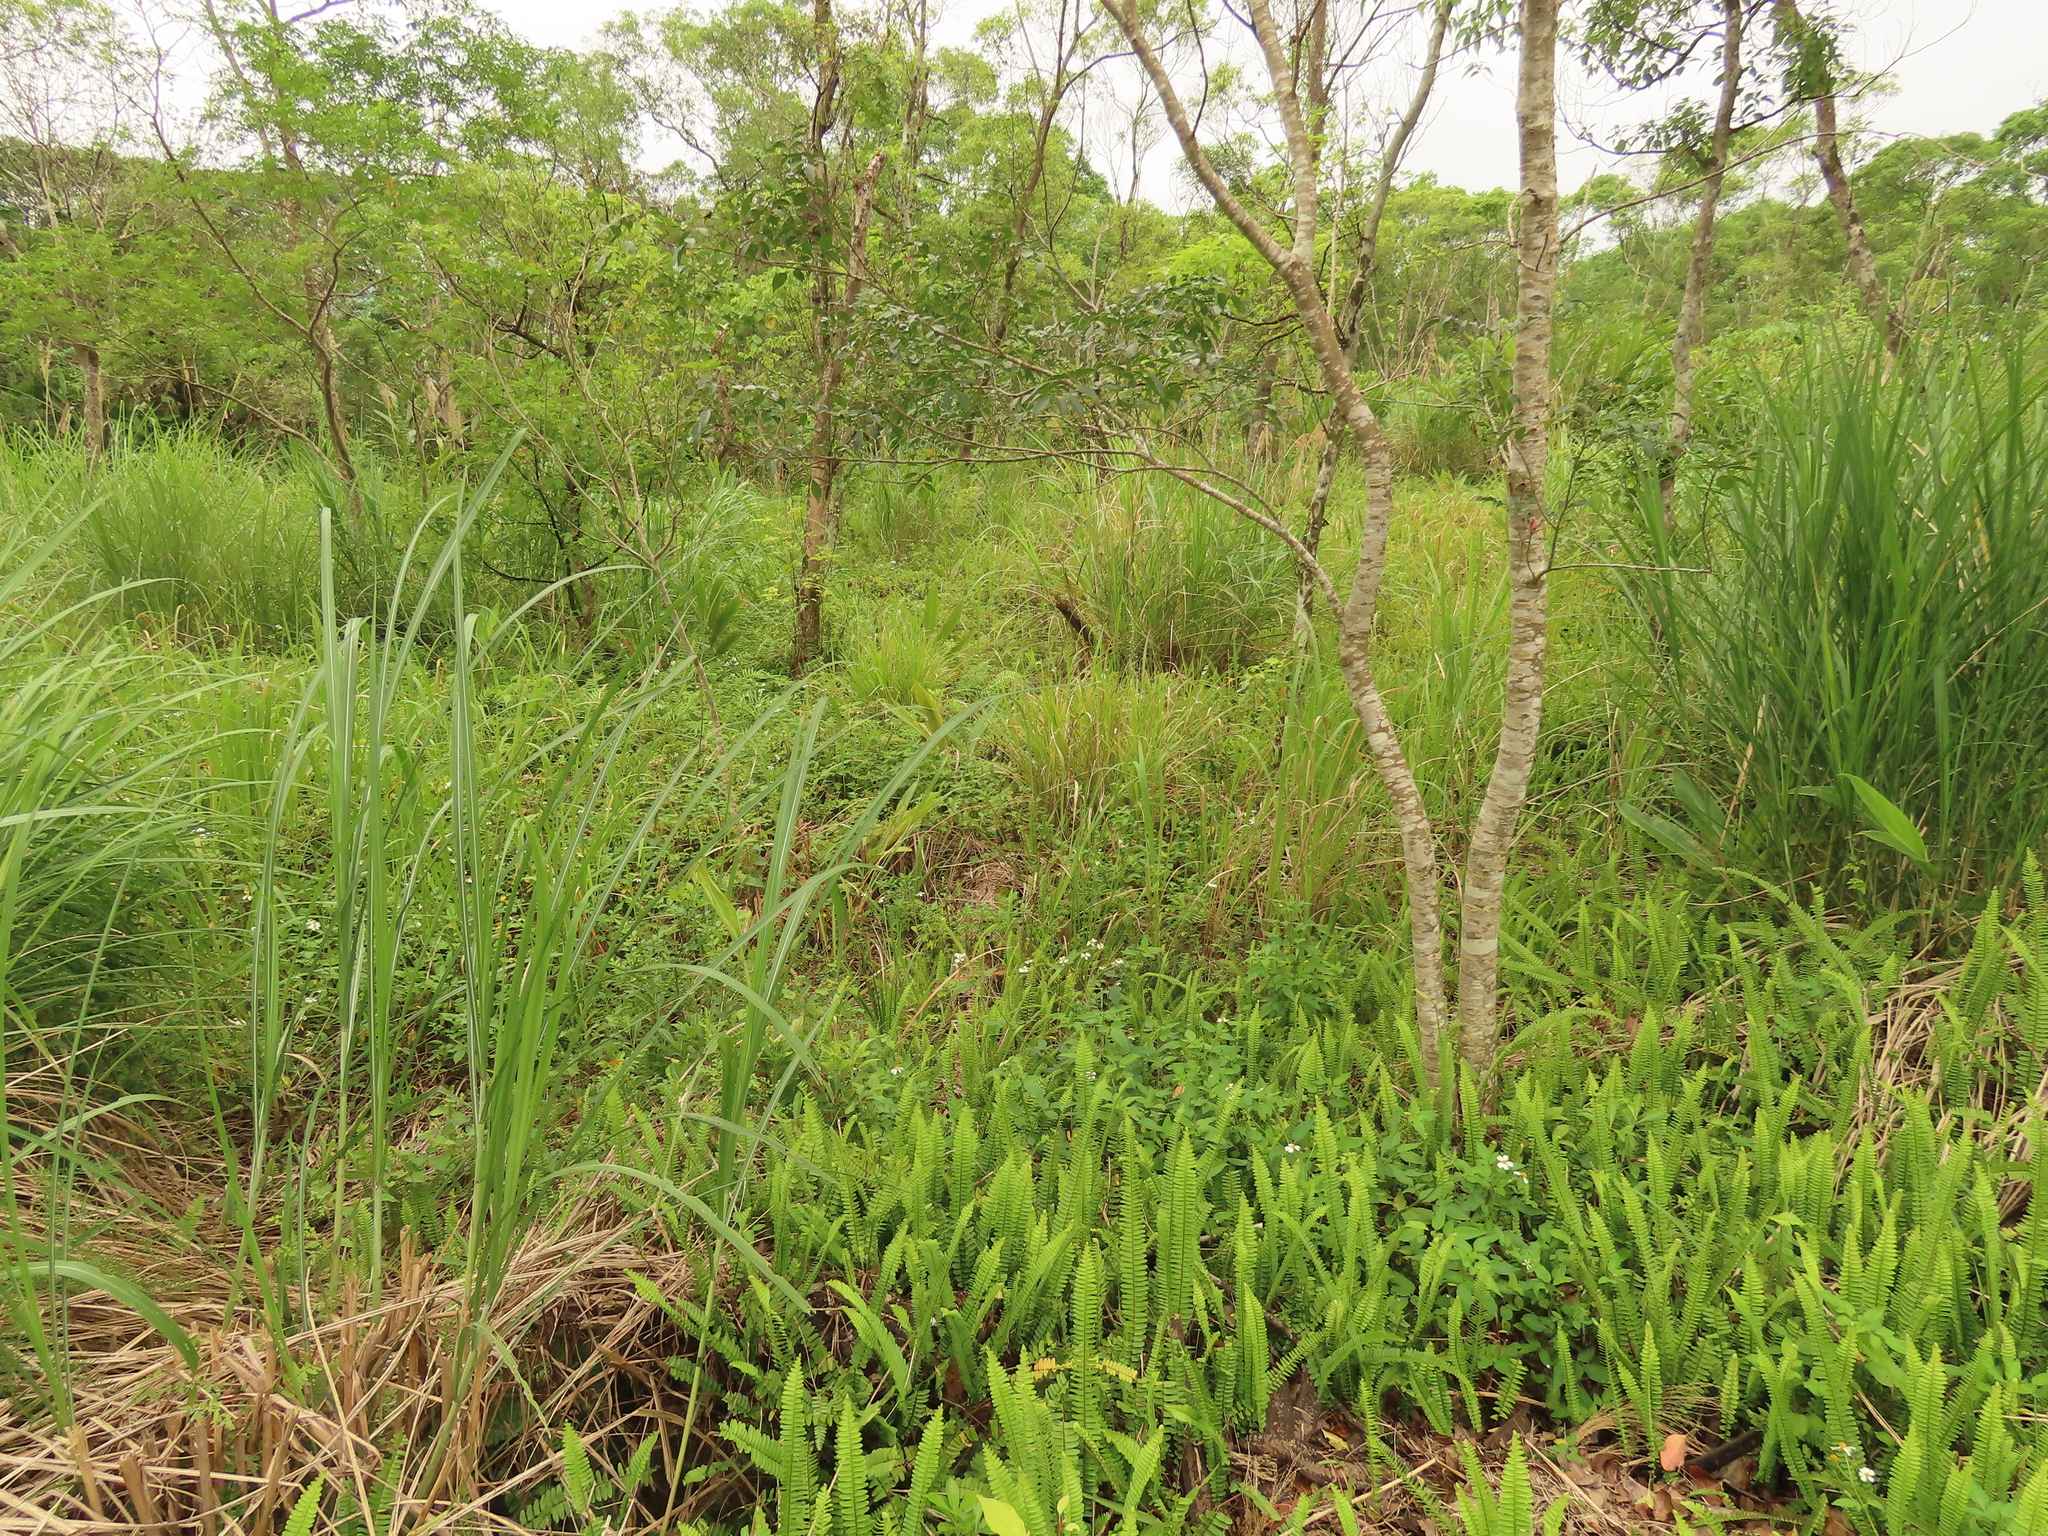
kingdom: Plantae
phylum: Tracheophyta
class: Polypodiopsida
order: Polypodiales
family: Nephrolepidaceae
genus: Nephrolepis
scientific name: Nephrolepis cordifolia
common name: Narrow swordfern
